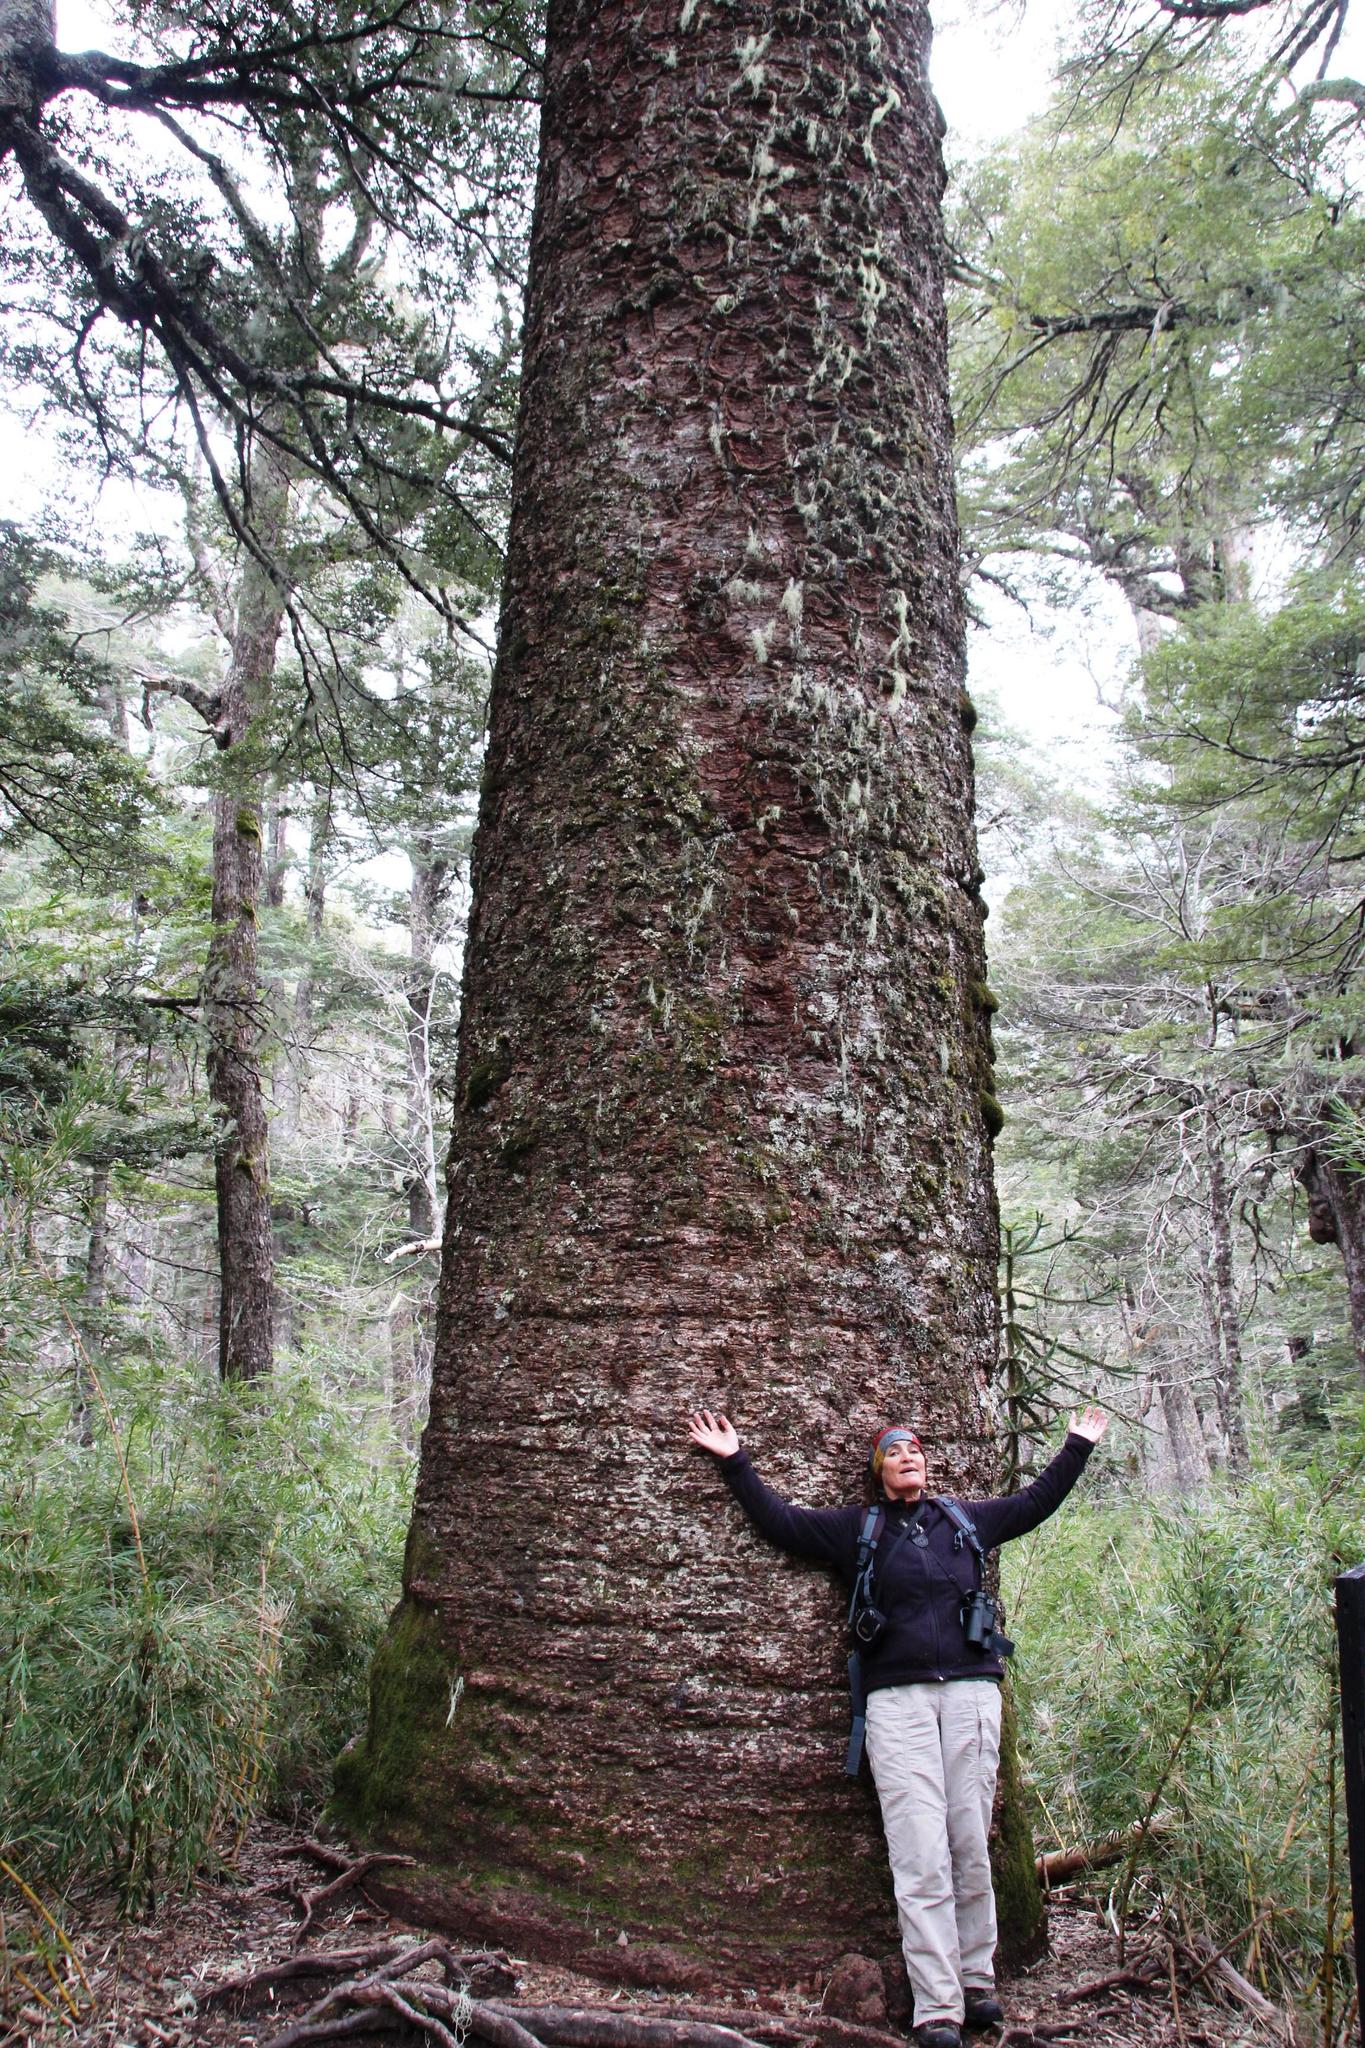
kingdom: Plantae
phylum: Tracheophyta
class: Pinopsida
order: Pinales
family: Araucariaceae
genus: Araucaria
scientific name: Araucaria araucana
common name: Monkey-puzzle
